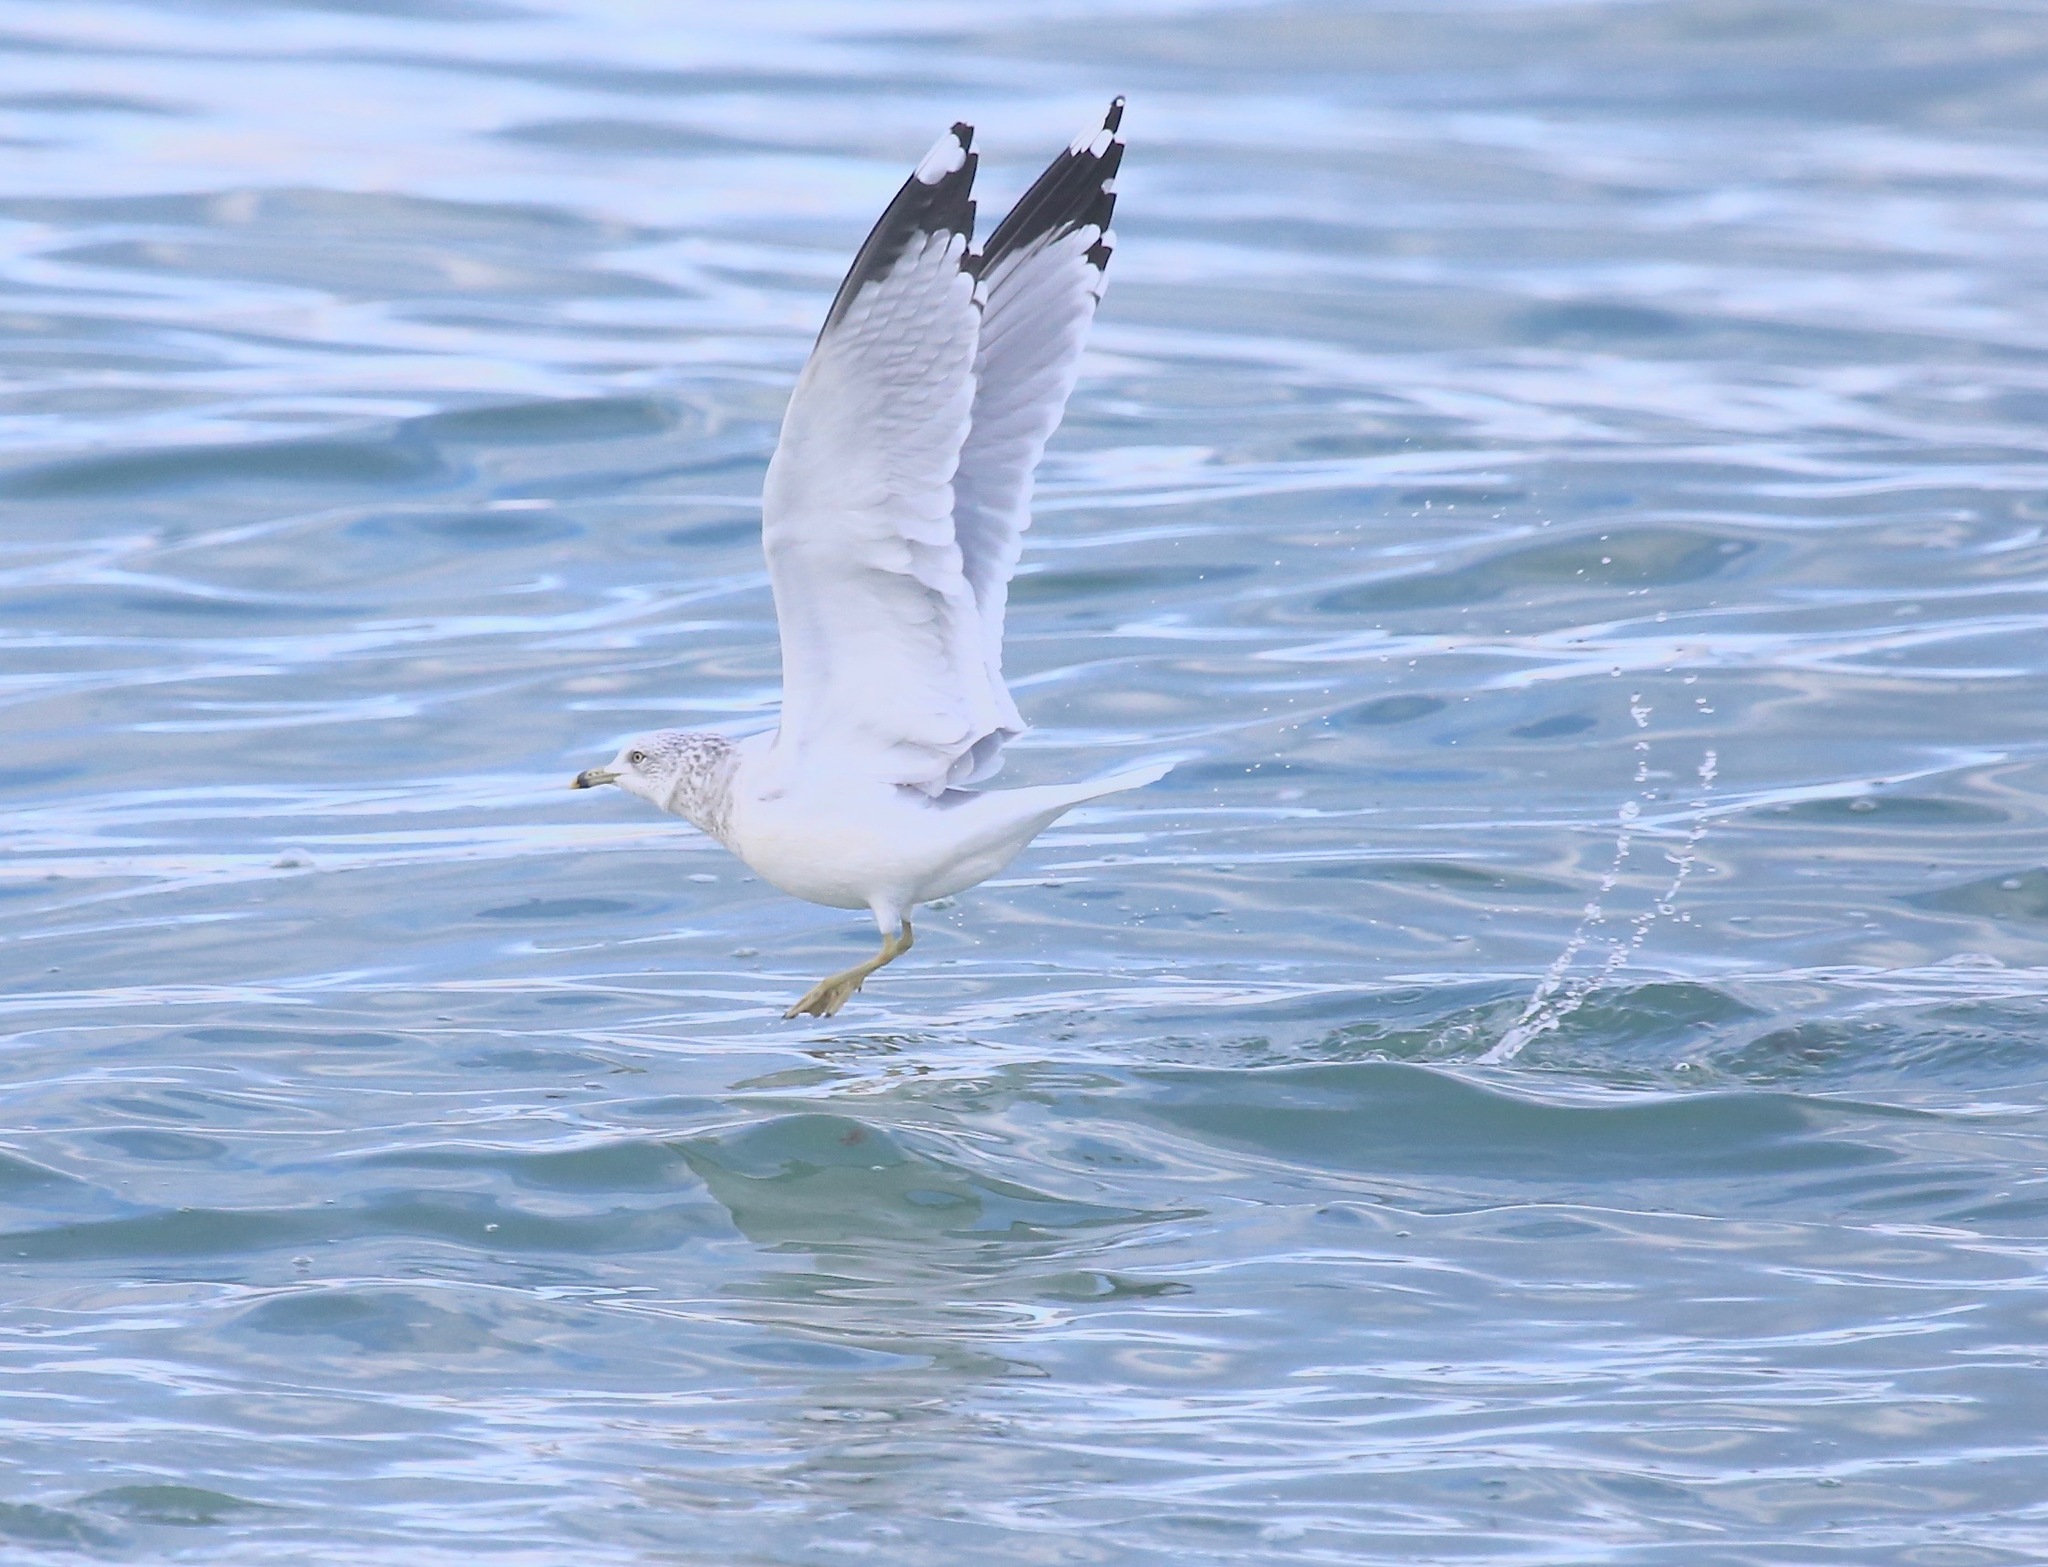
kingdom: Animalia
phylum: Chordata
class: Aves
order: Charadriiformes
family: Laridae
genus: Larus
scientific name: Larus delawarensis
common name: Ring-billed gull
